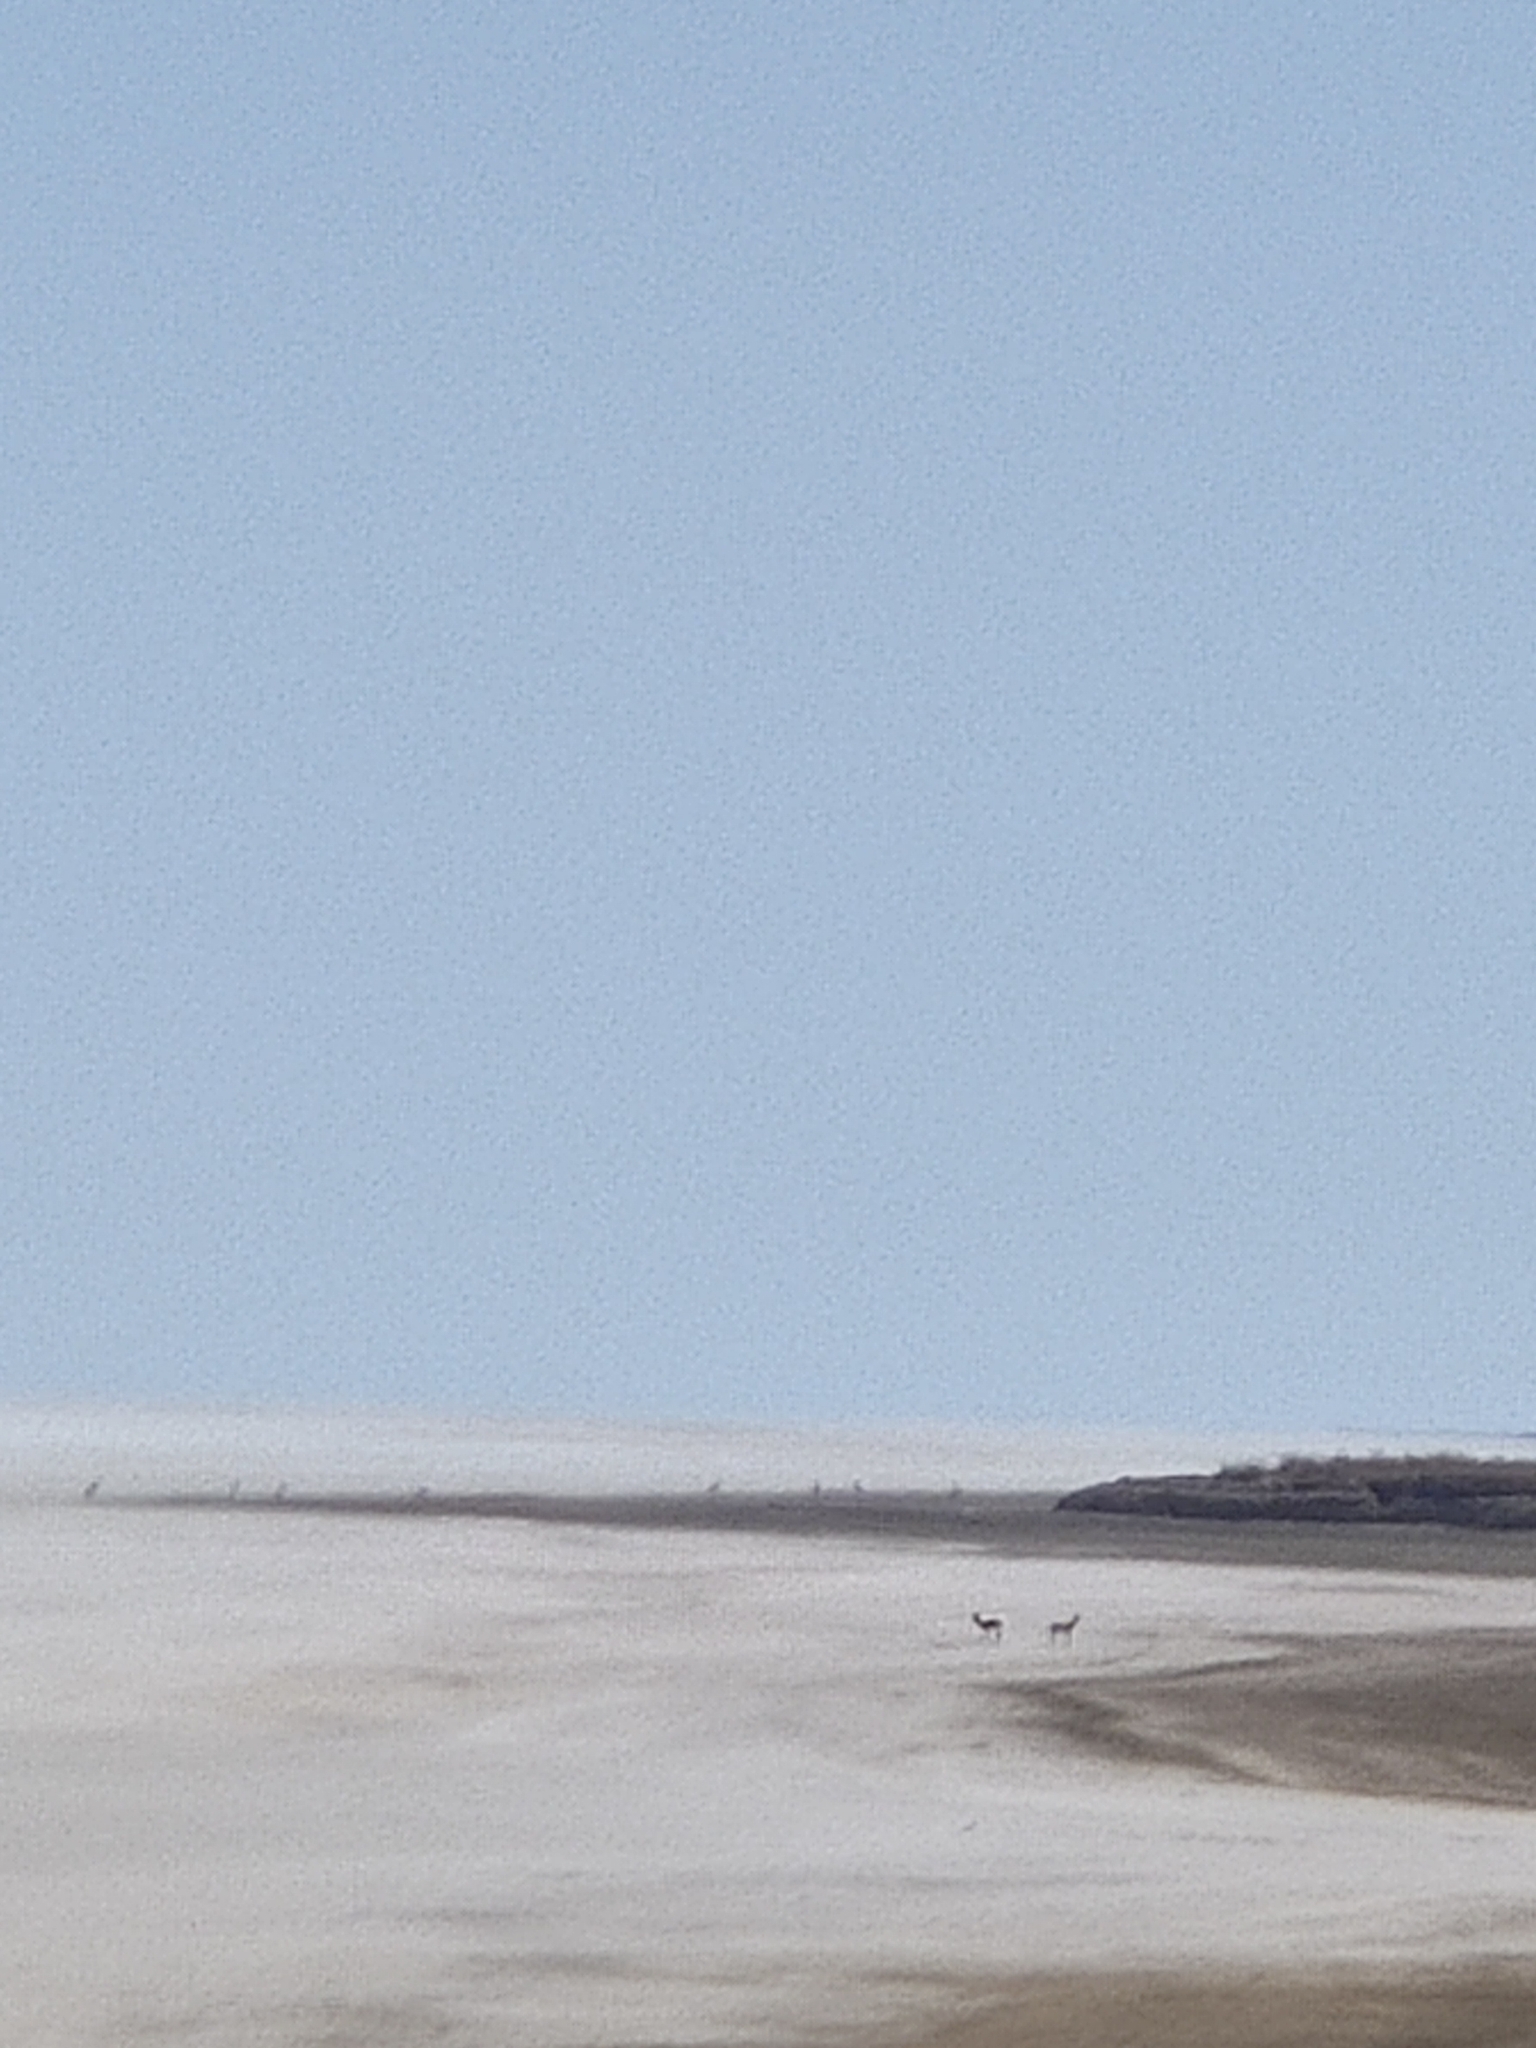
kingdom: Animalia
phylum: Chordata
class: Mammalia
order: Artiodactyla
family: Bovidae
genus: Gazella
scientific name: Gazella bennettii
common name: Indian gazelle
